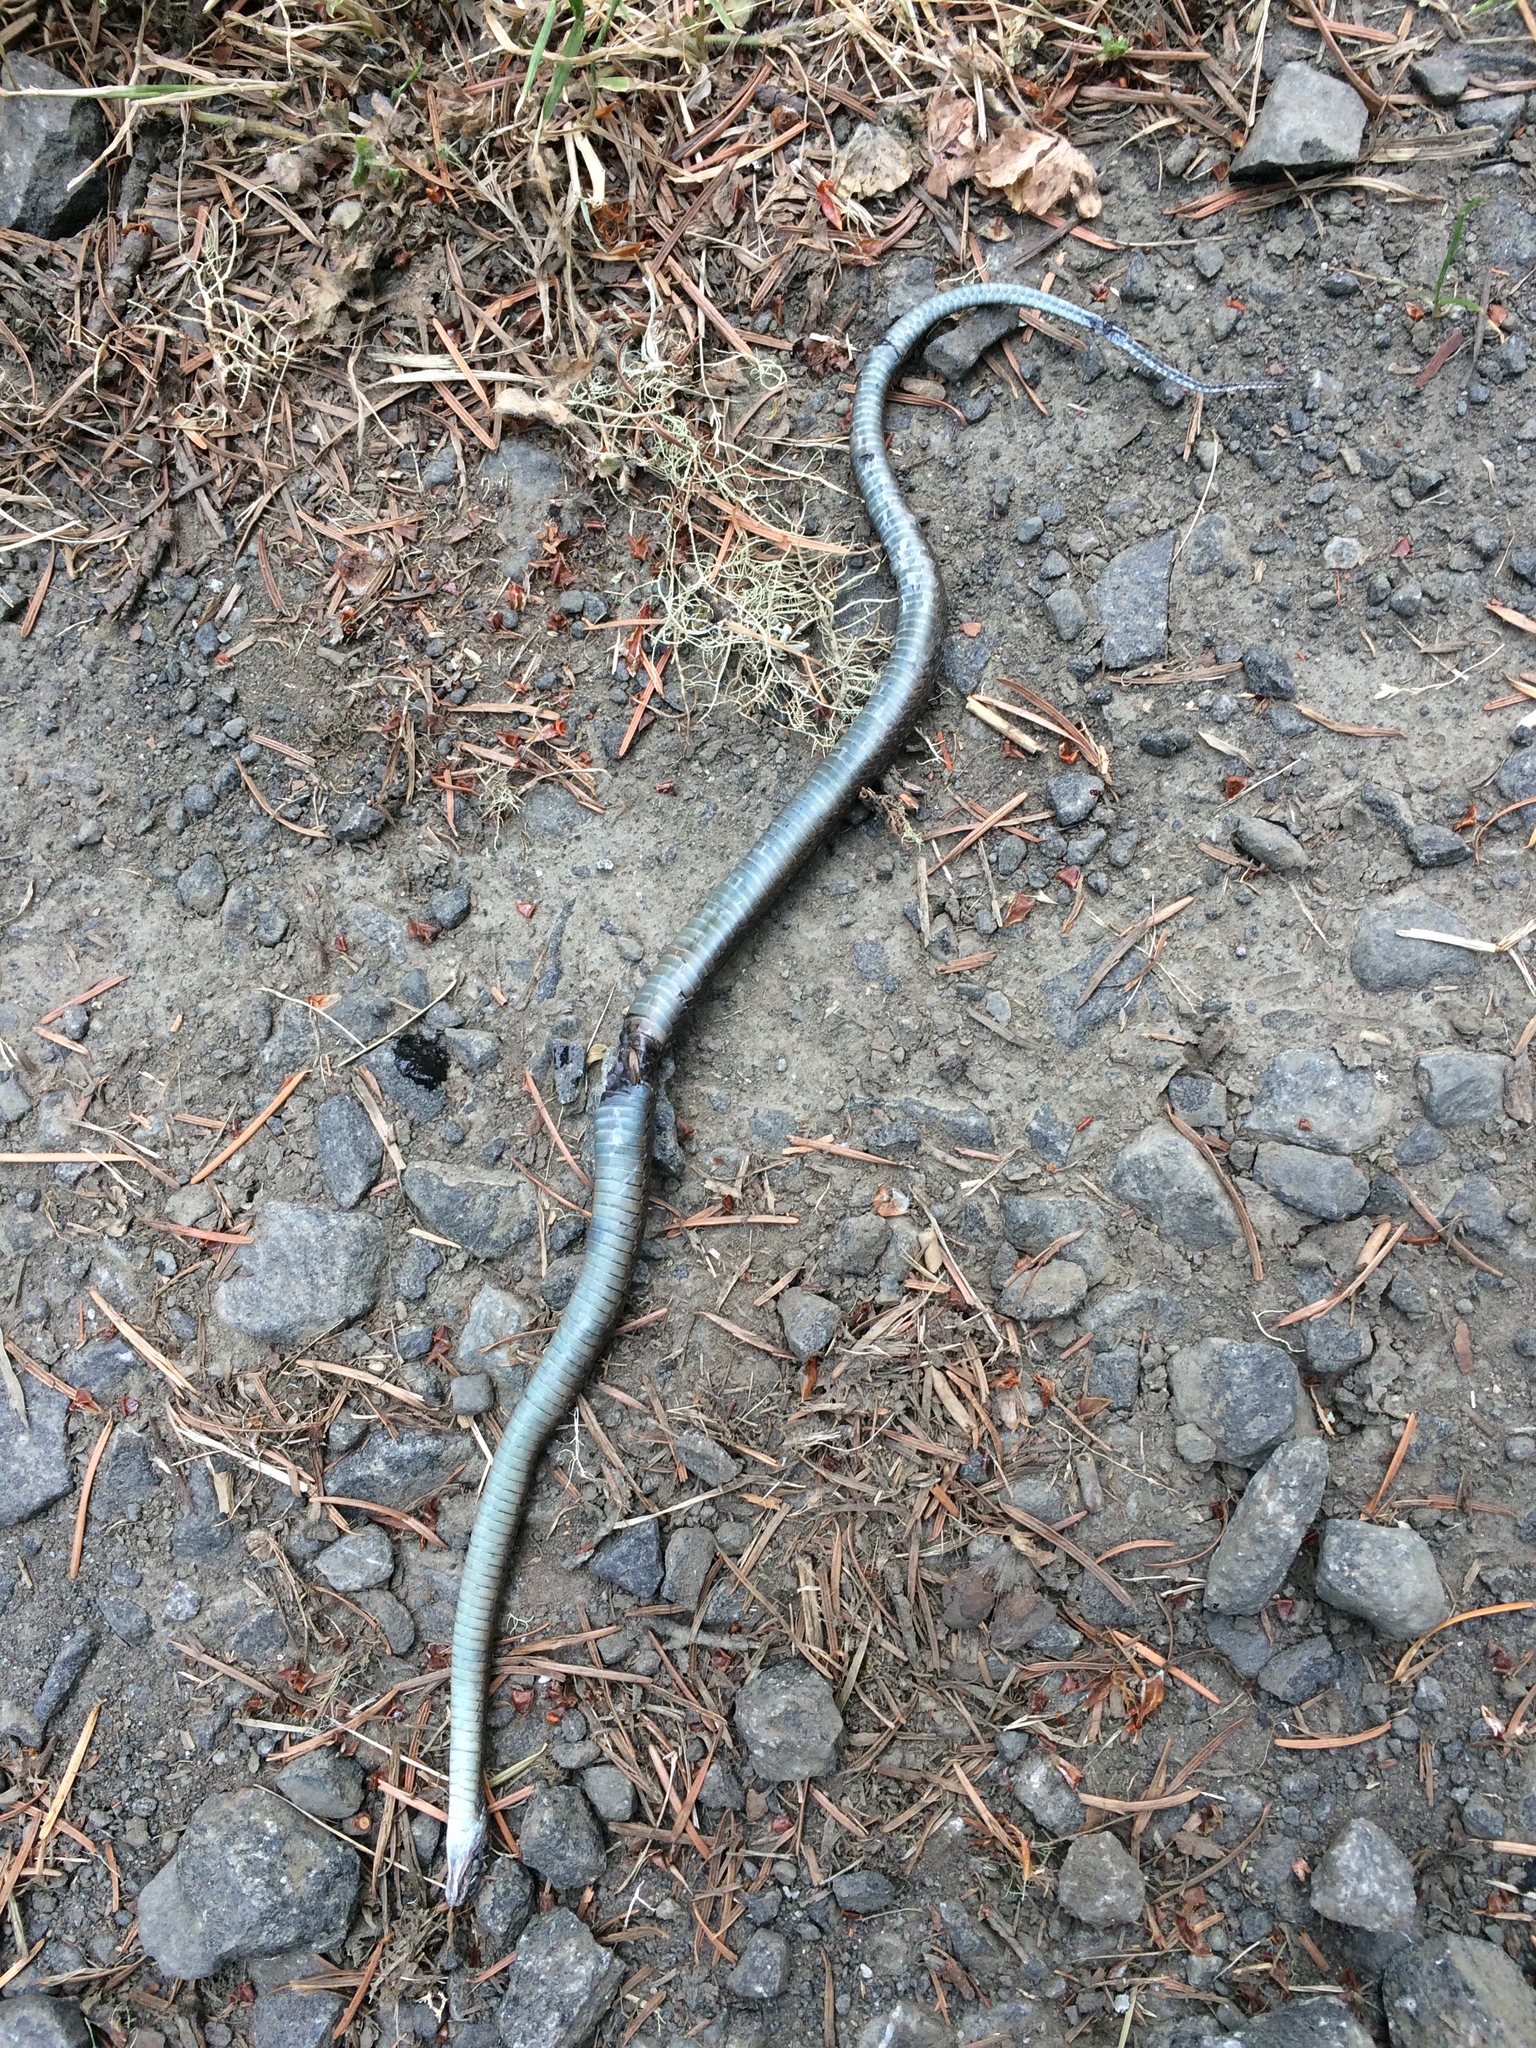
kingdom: Animalia
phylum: Chordata
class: Squamata
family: Colubridae
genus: Thamnophis
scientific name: Thamnophis ordinoides
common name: Northwestern garter snake
